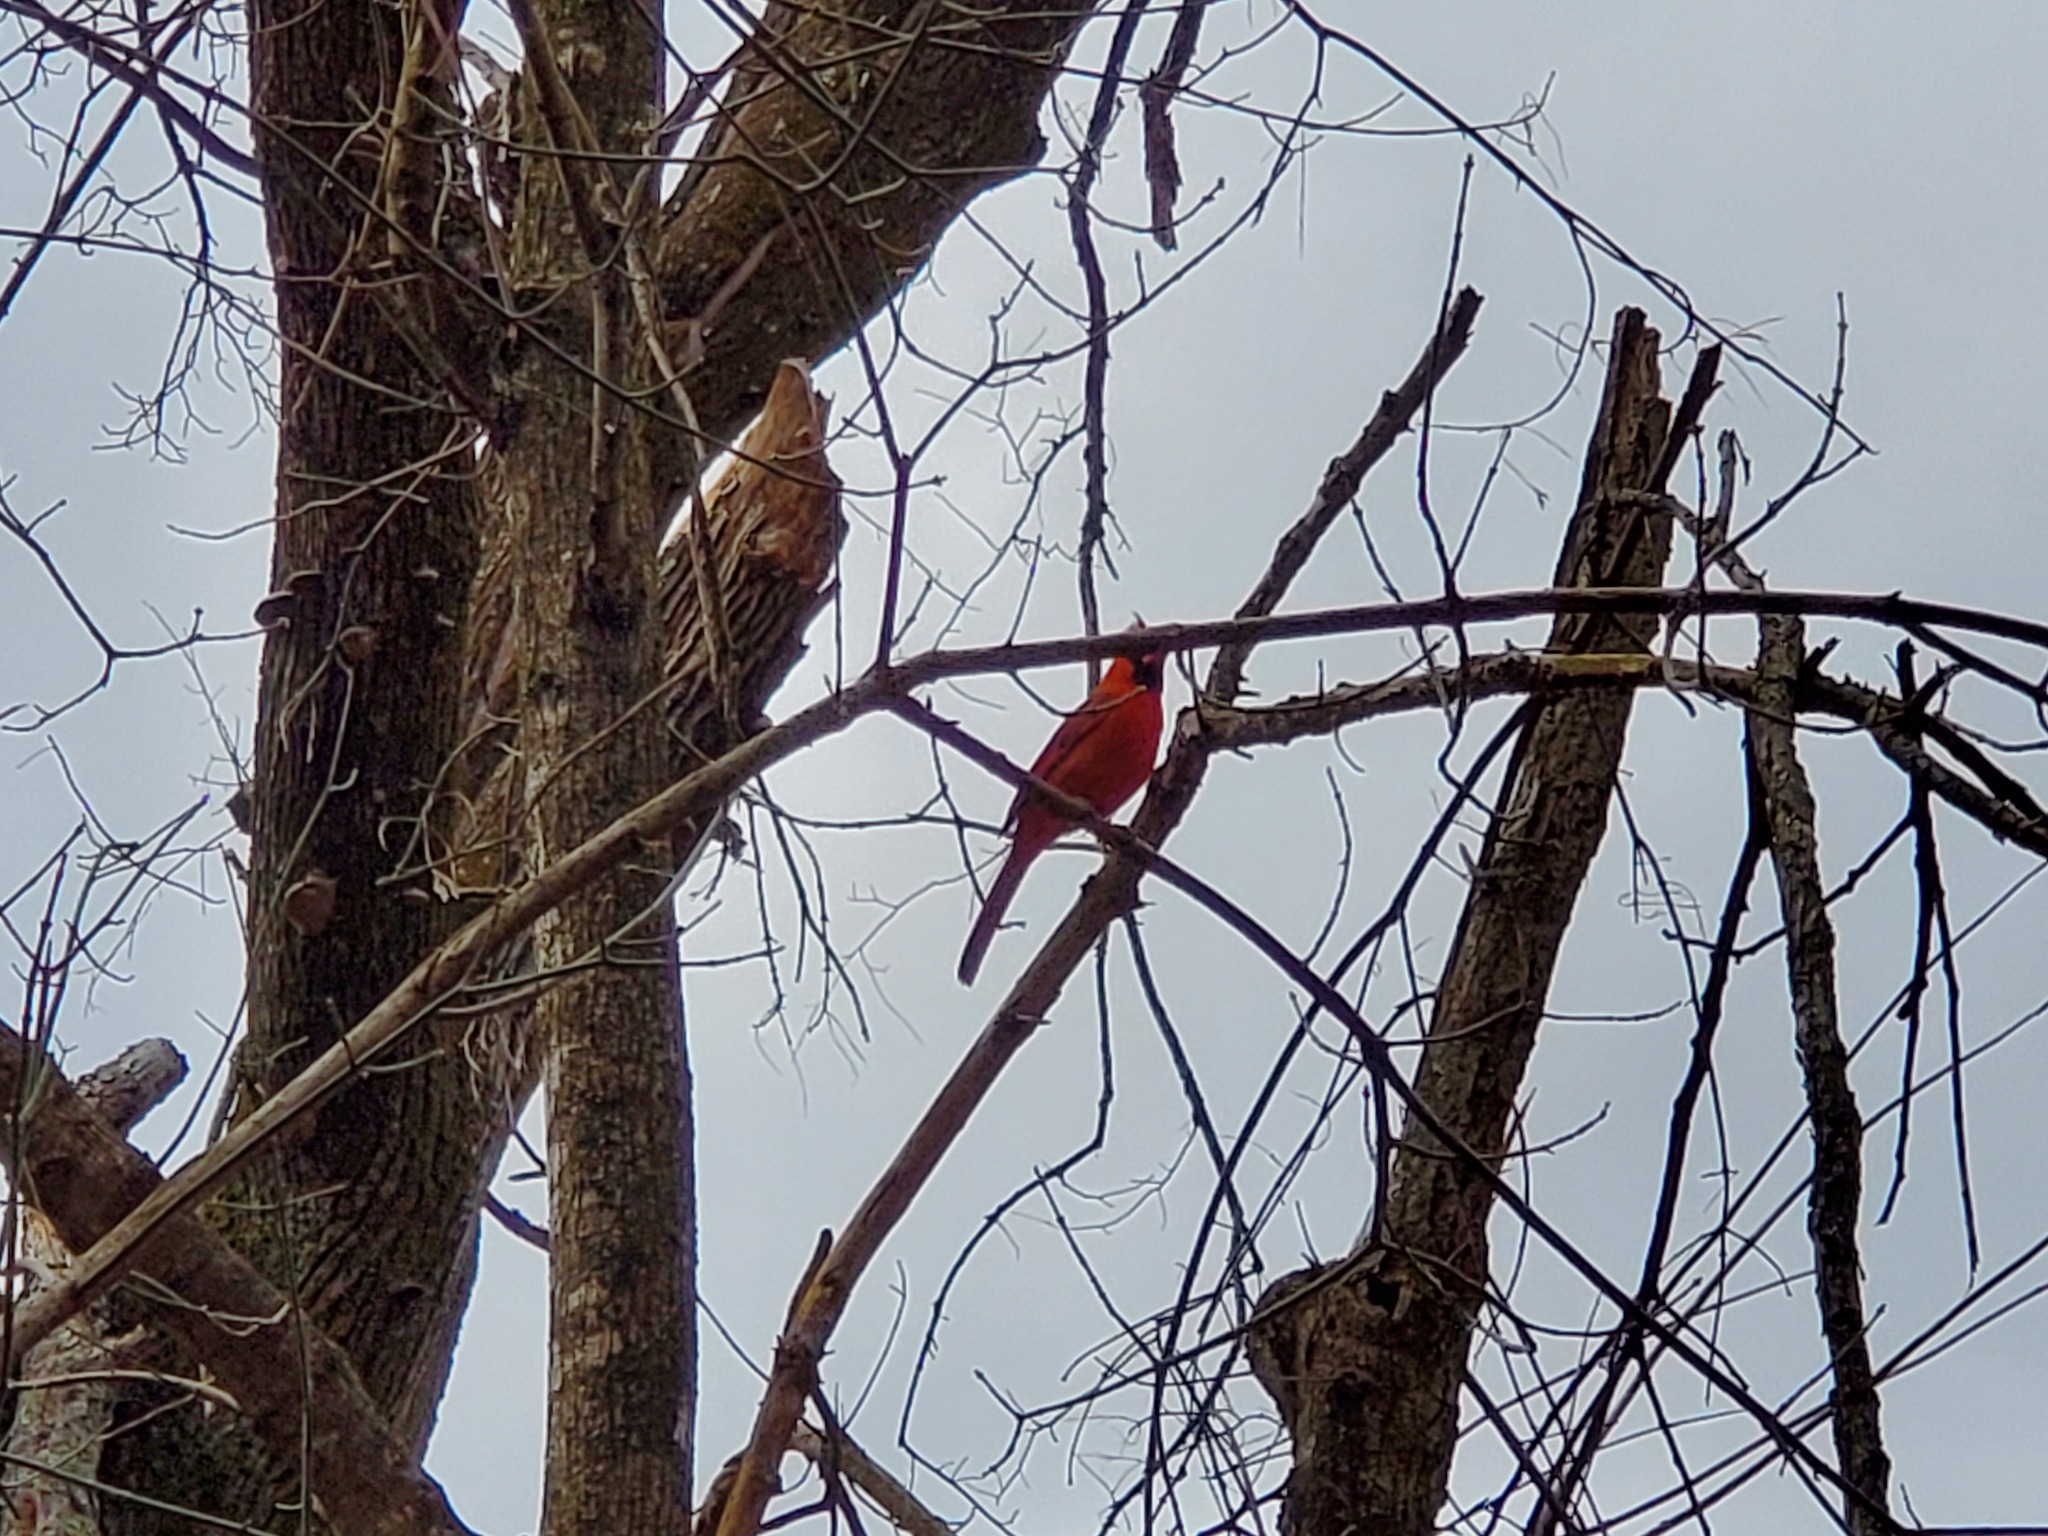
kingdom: Animalia
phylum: Chordata
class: Aves
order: Passeriformes
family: Cardinalidae
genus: Cardinalis
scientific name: Cardinalis cardinalis
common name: Northern cardinal
